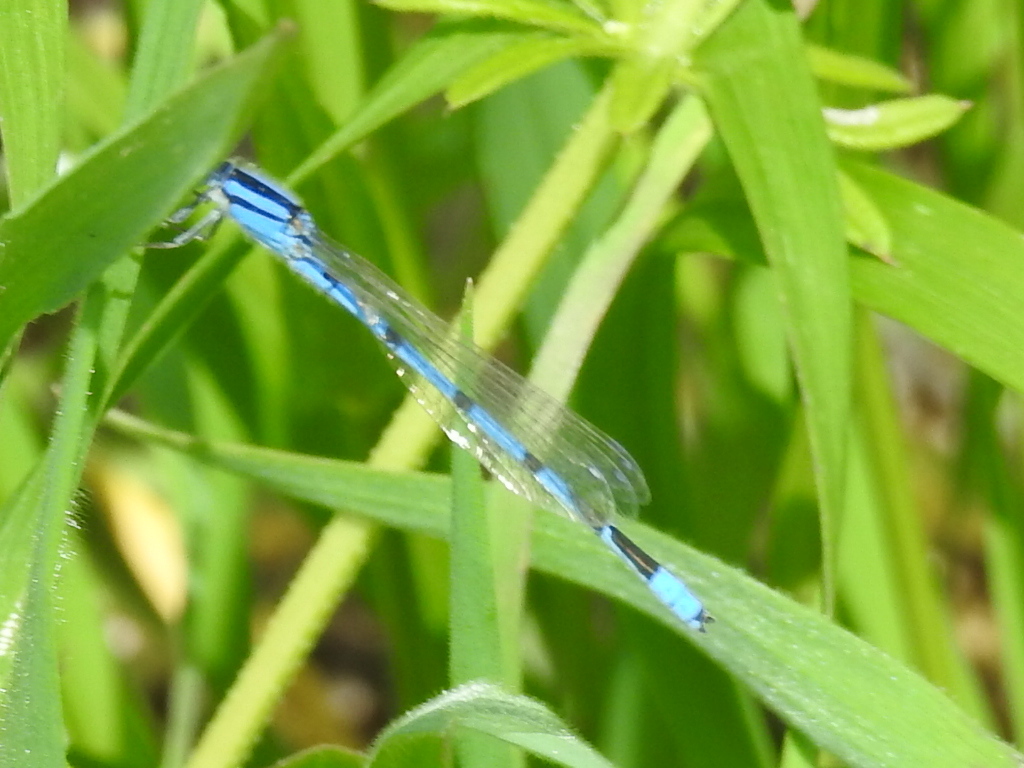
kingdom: Animalia
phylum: Arthropoda
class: Insecta
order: Odonata
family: Coenagrionidae
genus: Enallagma
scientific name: Enallagma civile
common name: Damselfly
